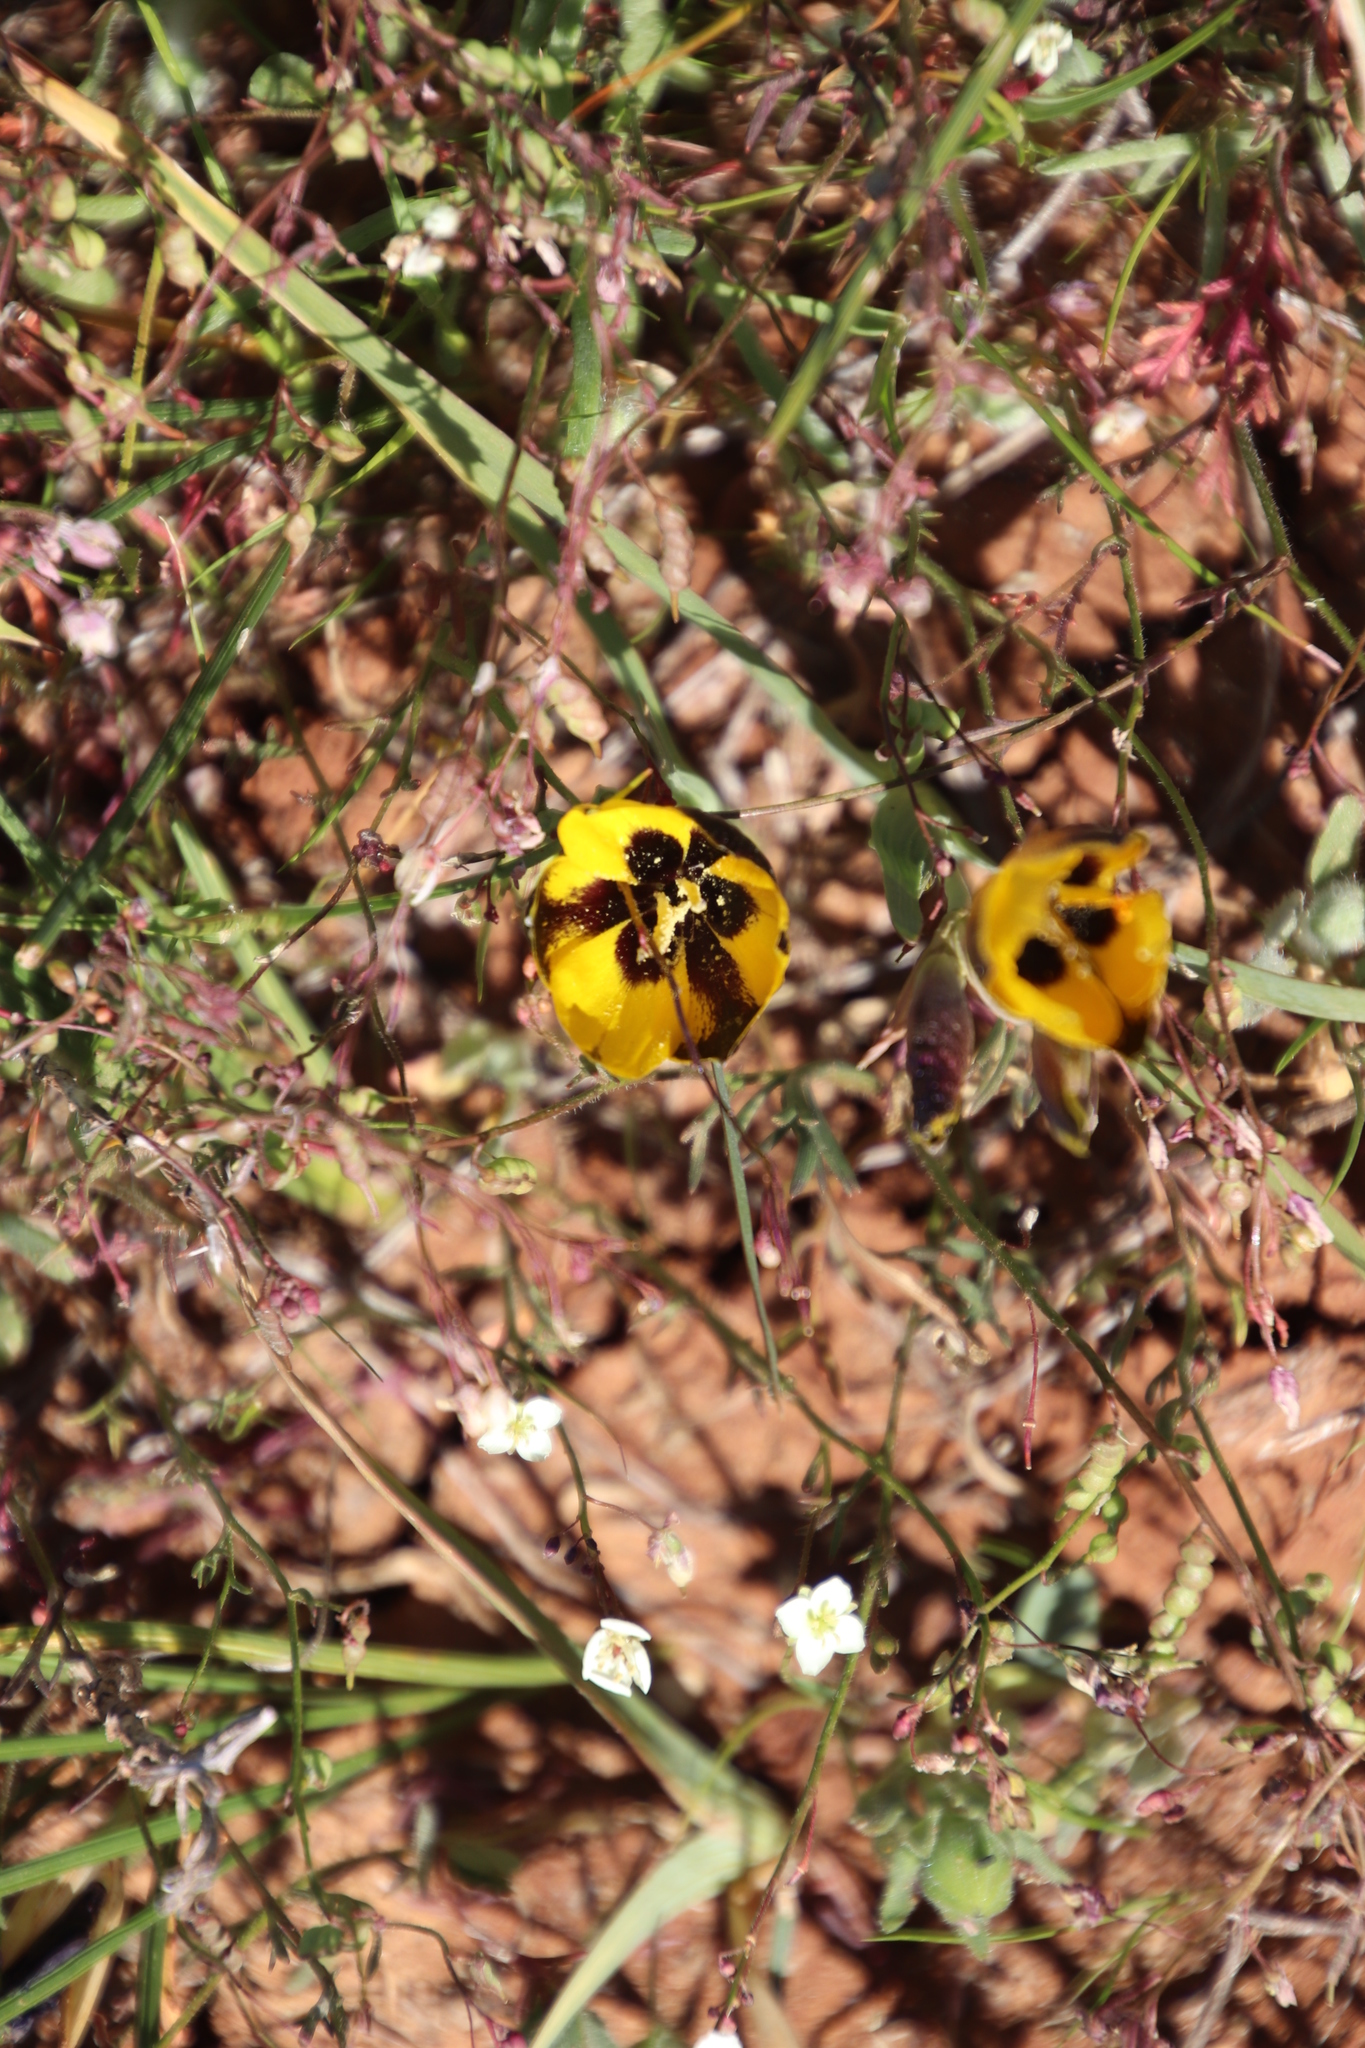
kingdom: Plantae
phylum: Tracheophyta
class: Liliopsida
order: Asparagales
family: Iridaceae
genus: Hesperantha
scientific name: Hesperantha vaginata
